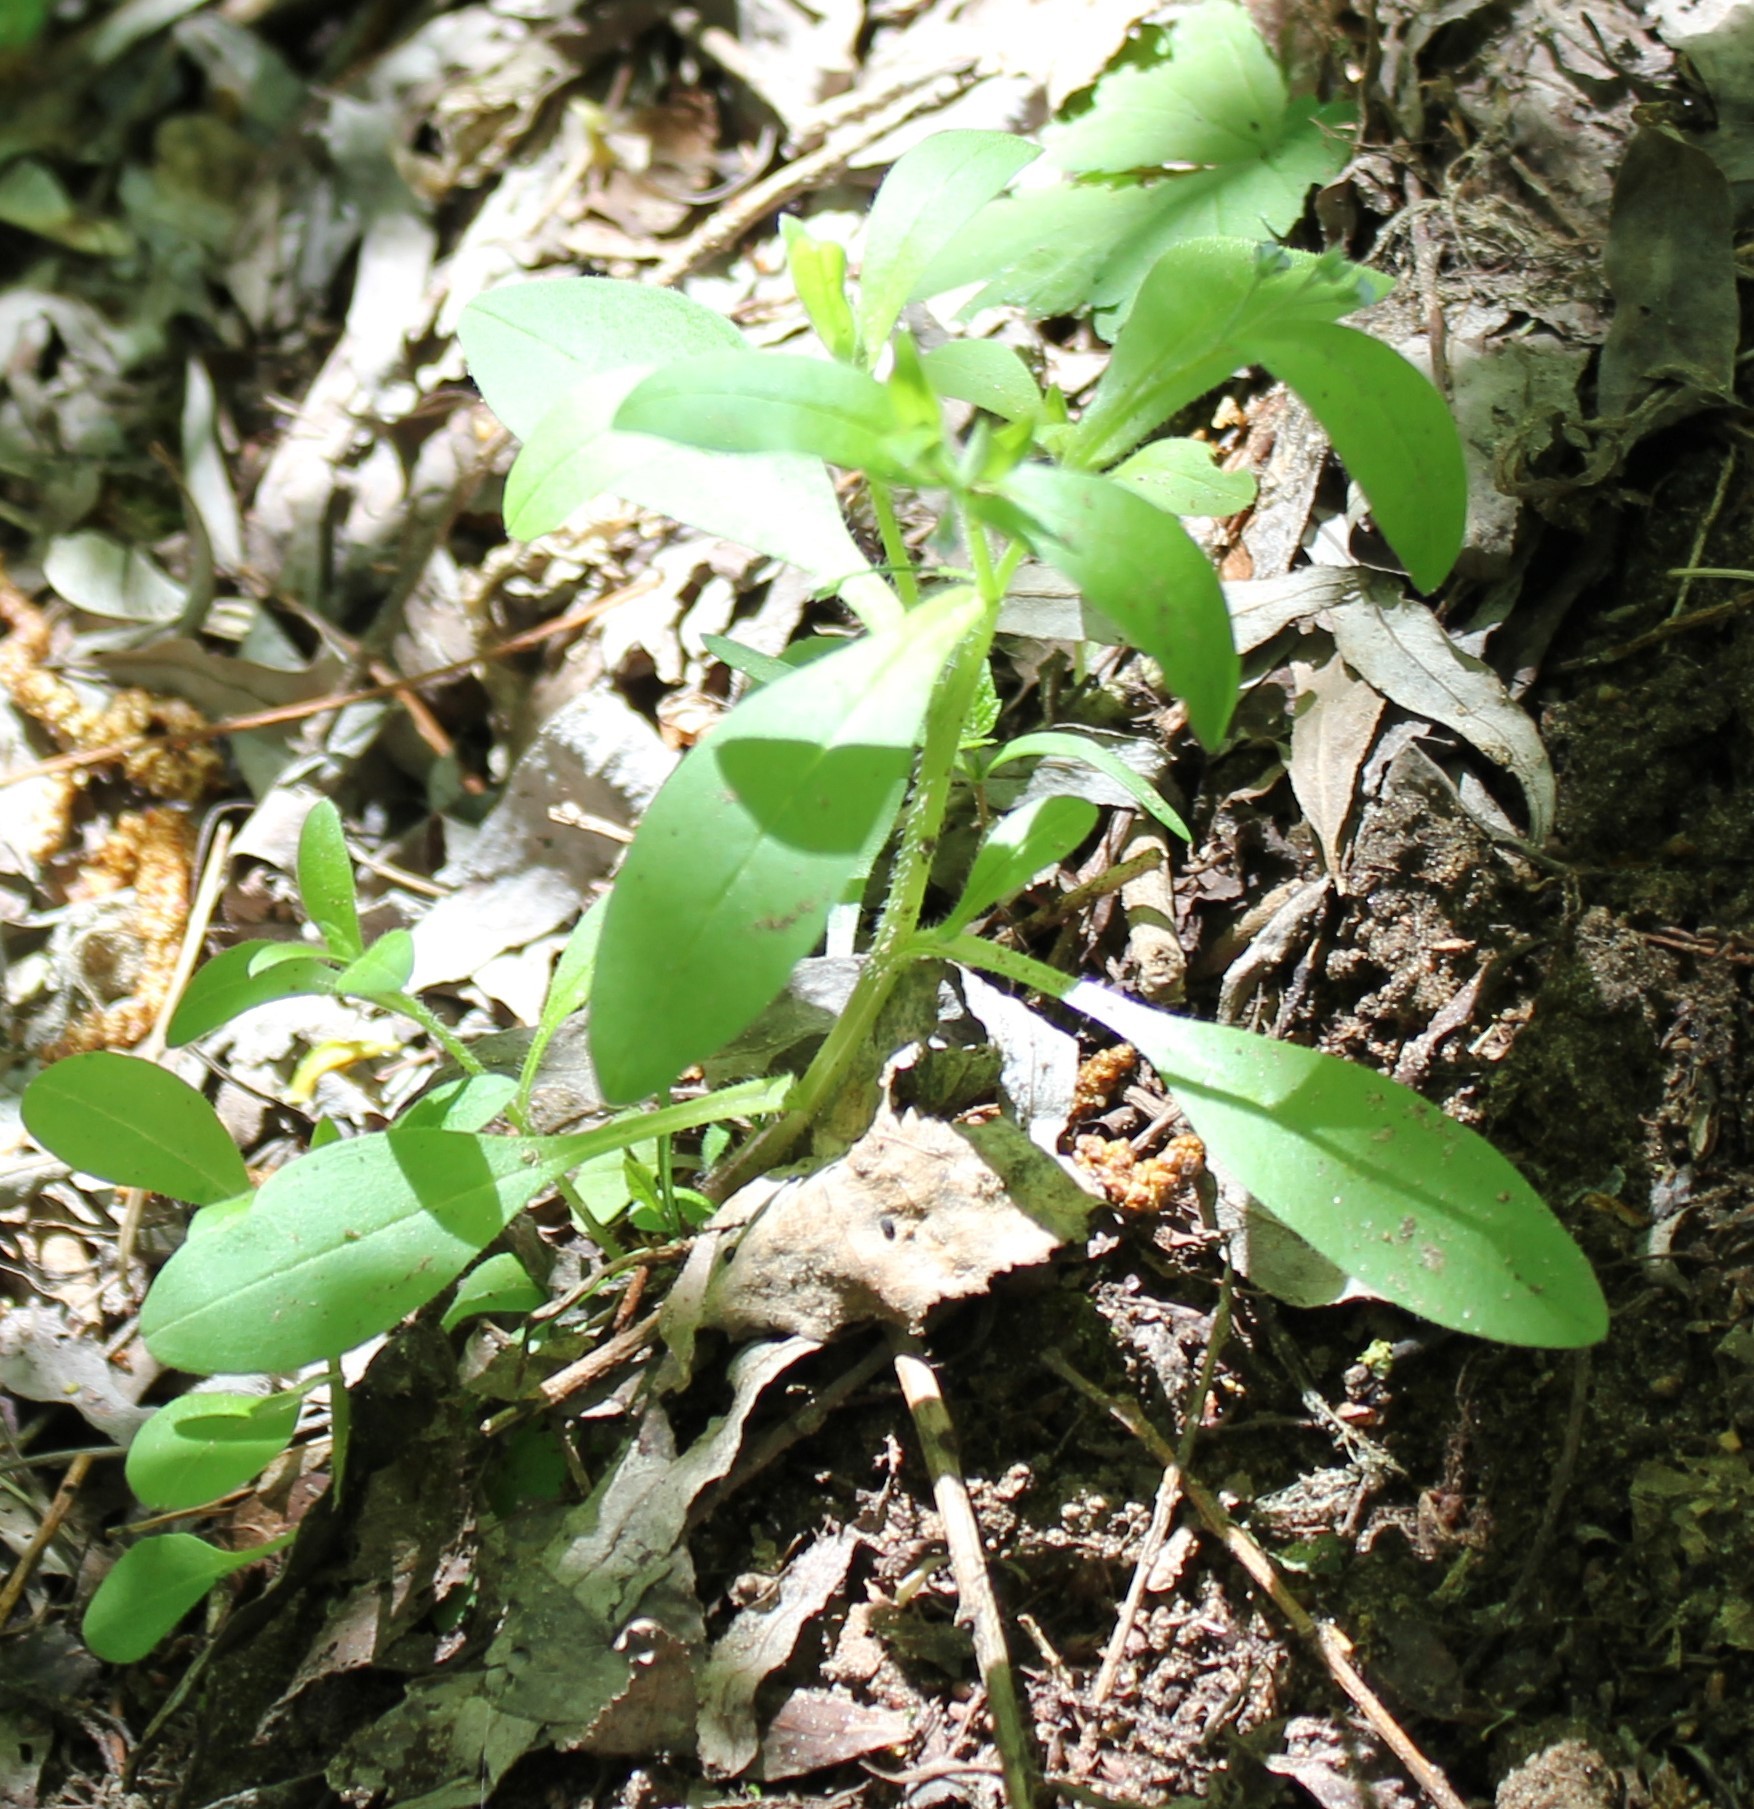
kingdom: Plantae
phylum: Tracheophyta
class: Magnoliopsida
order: Boraginales
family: Boraginaceae
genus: Myosotis
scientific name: Myosotis sparsiflora
